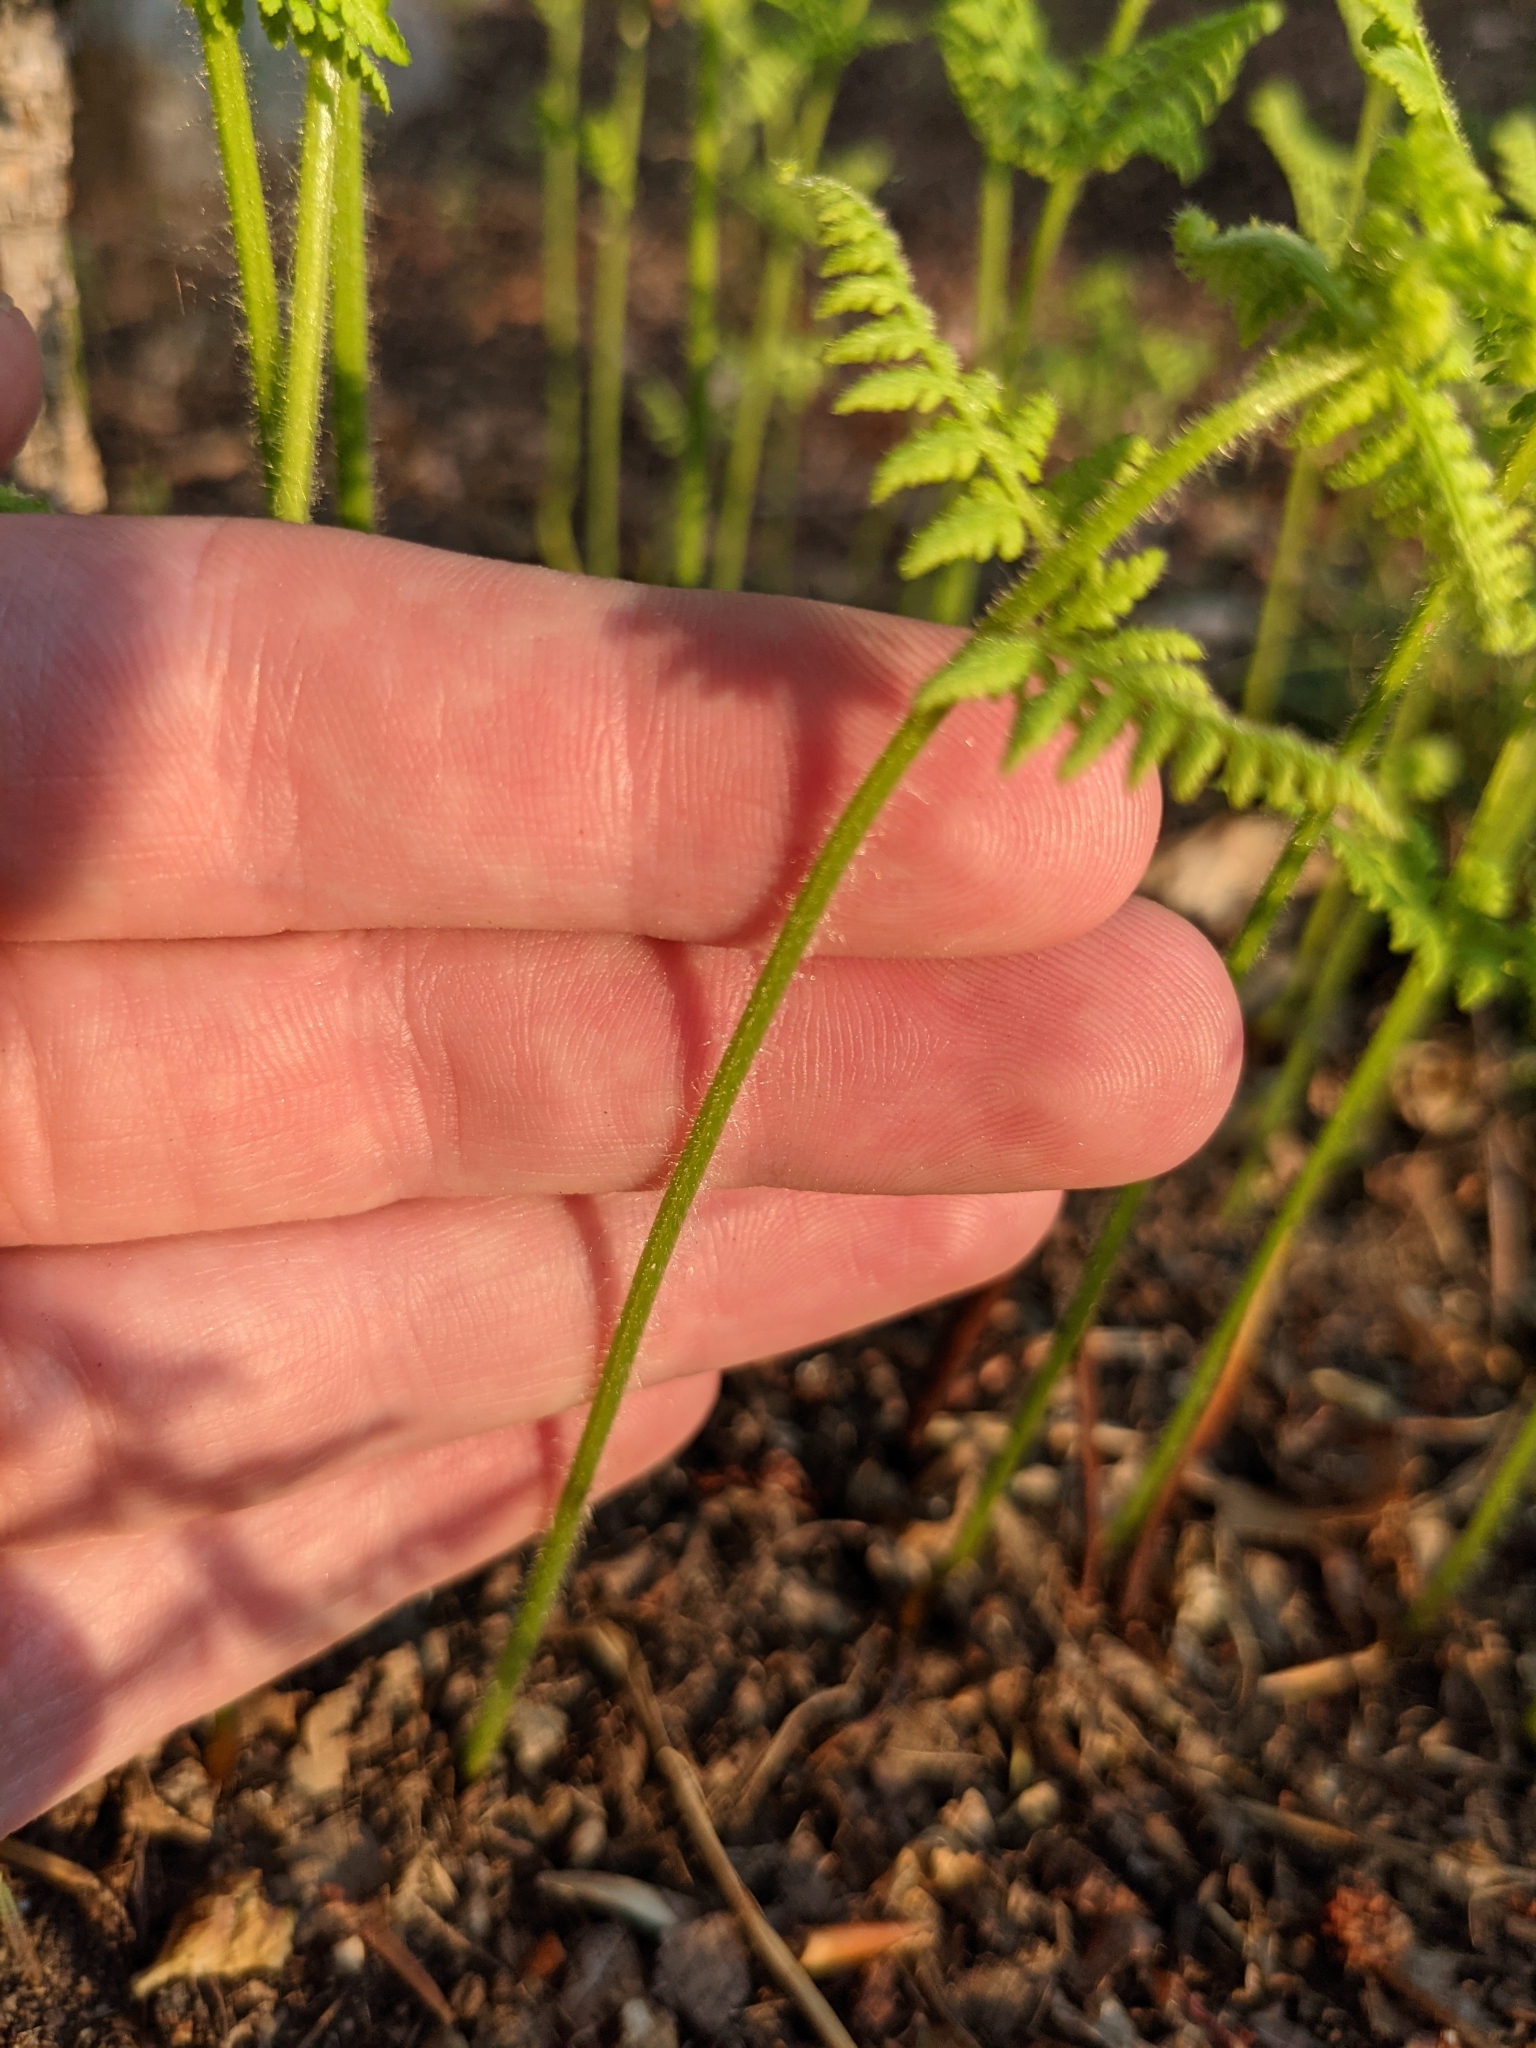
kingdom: Plantae
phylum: Tracheophyta
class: Polypodiopsida
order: Polypodiales
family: Dennstaedtiaceae
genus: Sitobolium
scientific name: Sitobolium punctilobum
